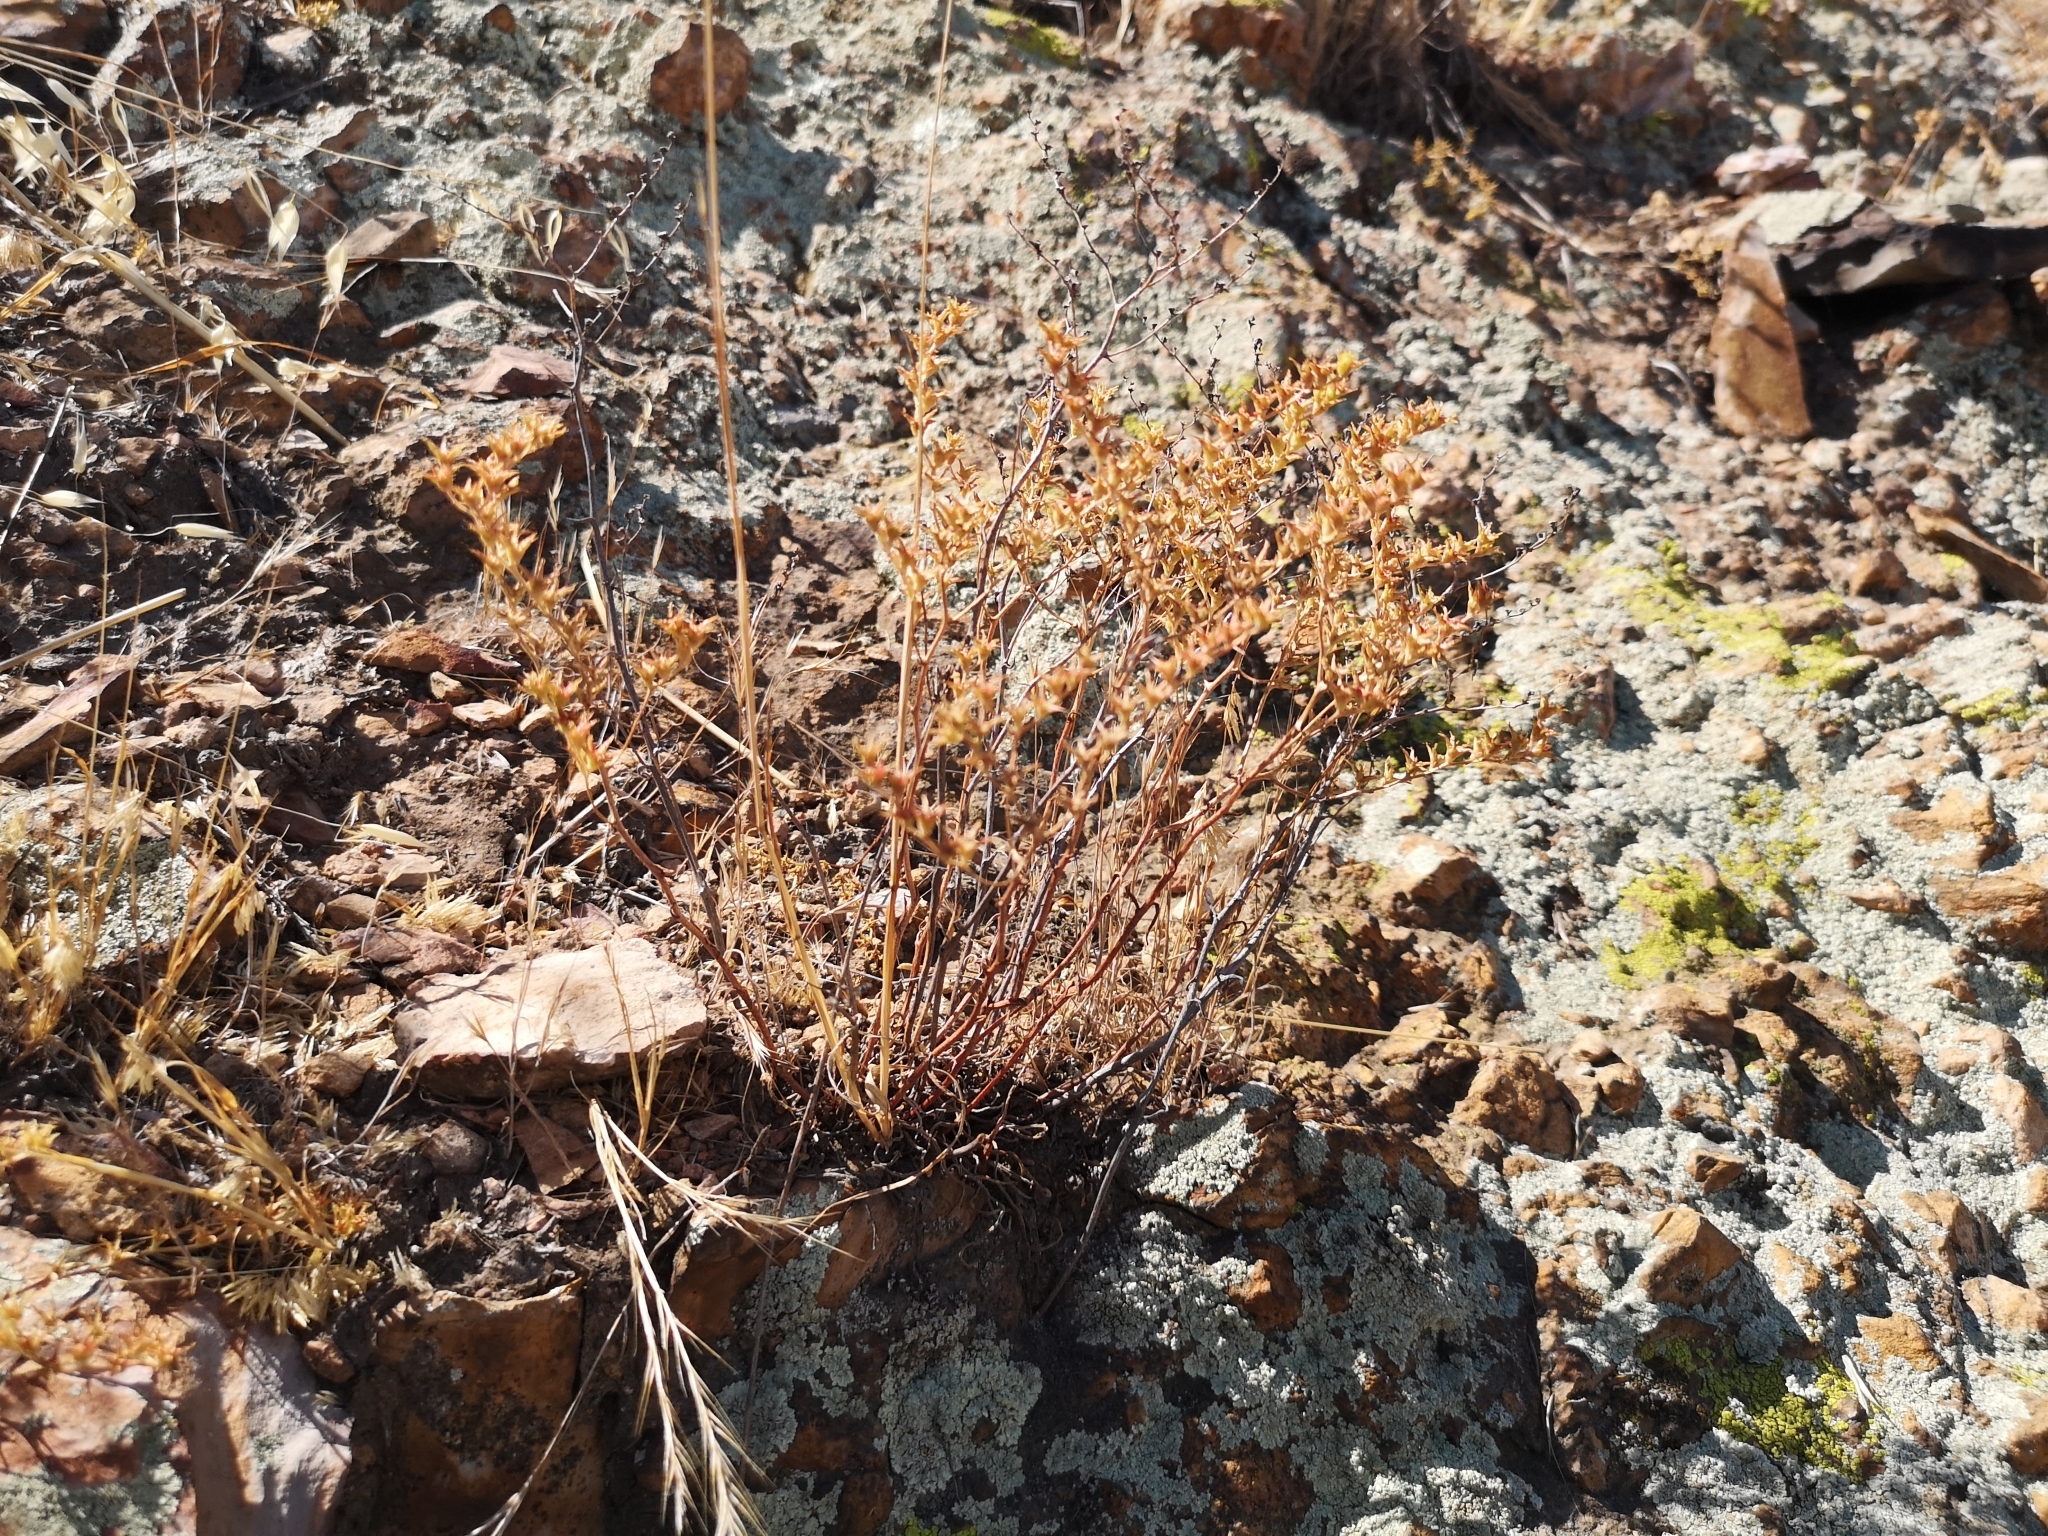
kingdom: Plantae
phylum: Tracheophyta
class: Magnoliopsida
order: Saxifragales
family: Crassulaceae
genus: Dudleya
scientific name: Dudleya multicaulis
